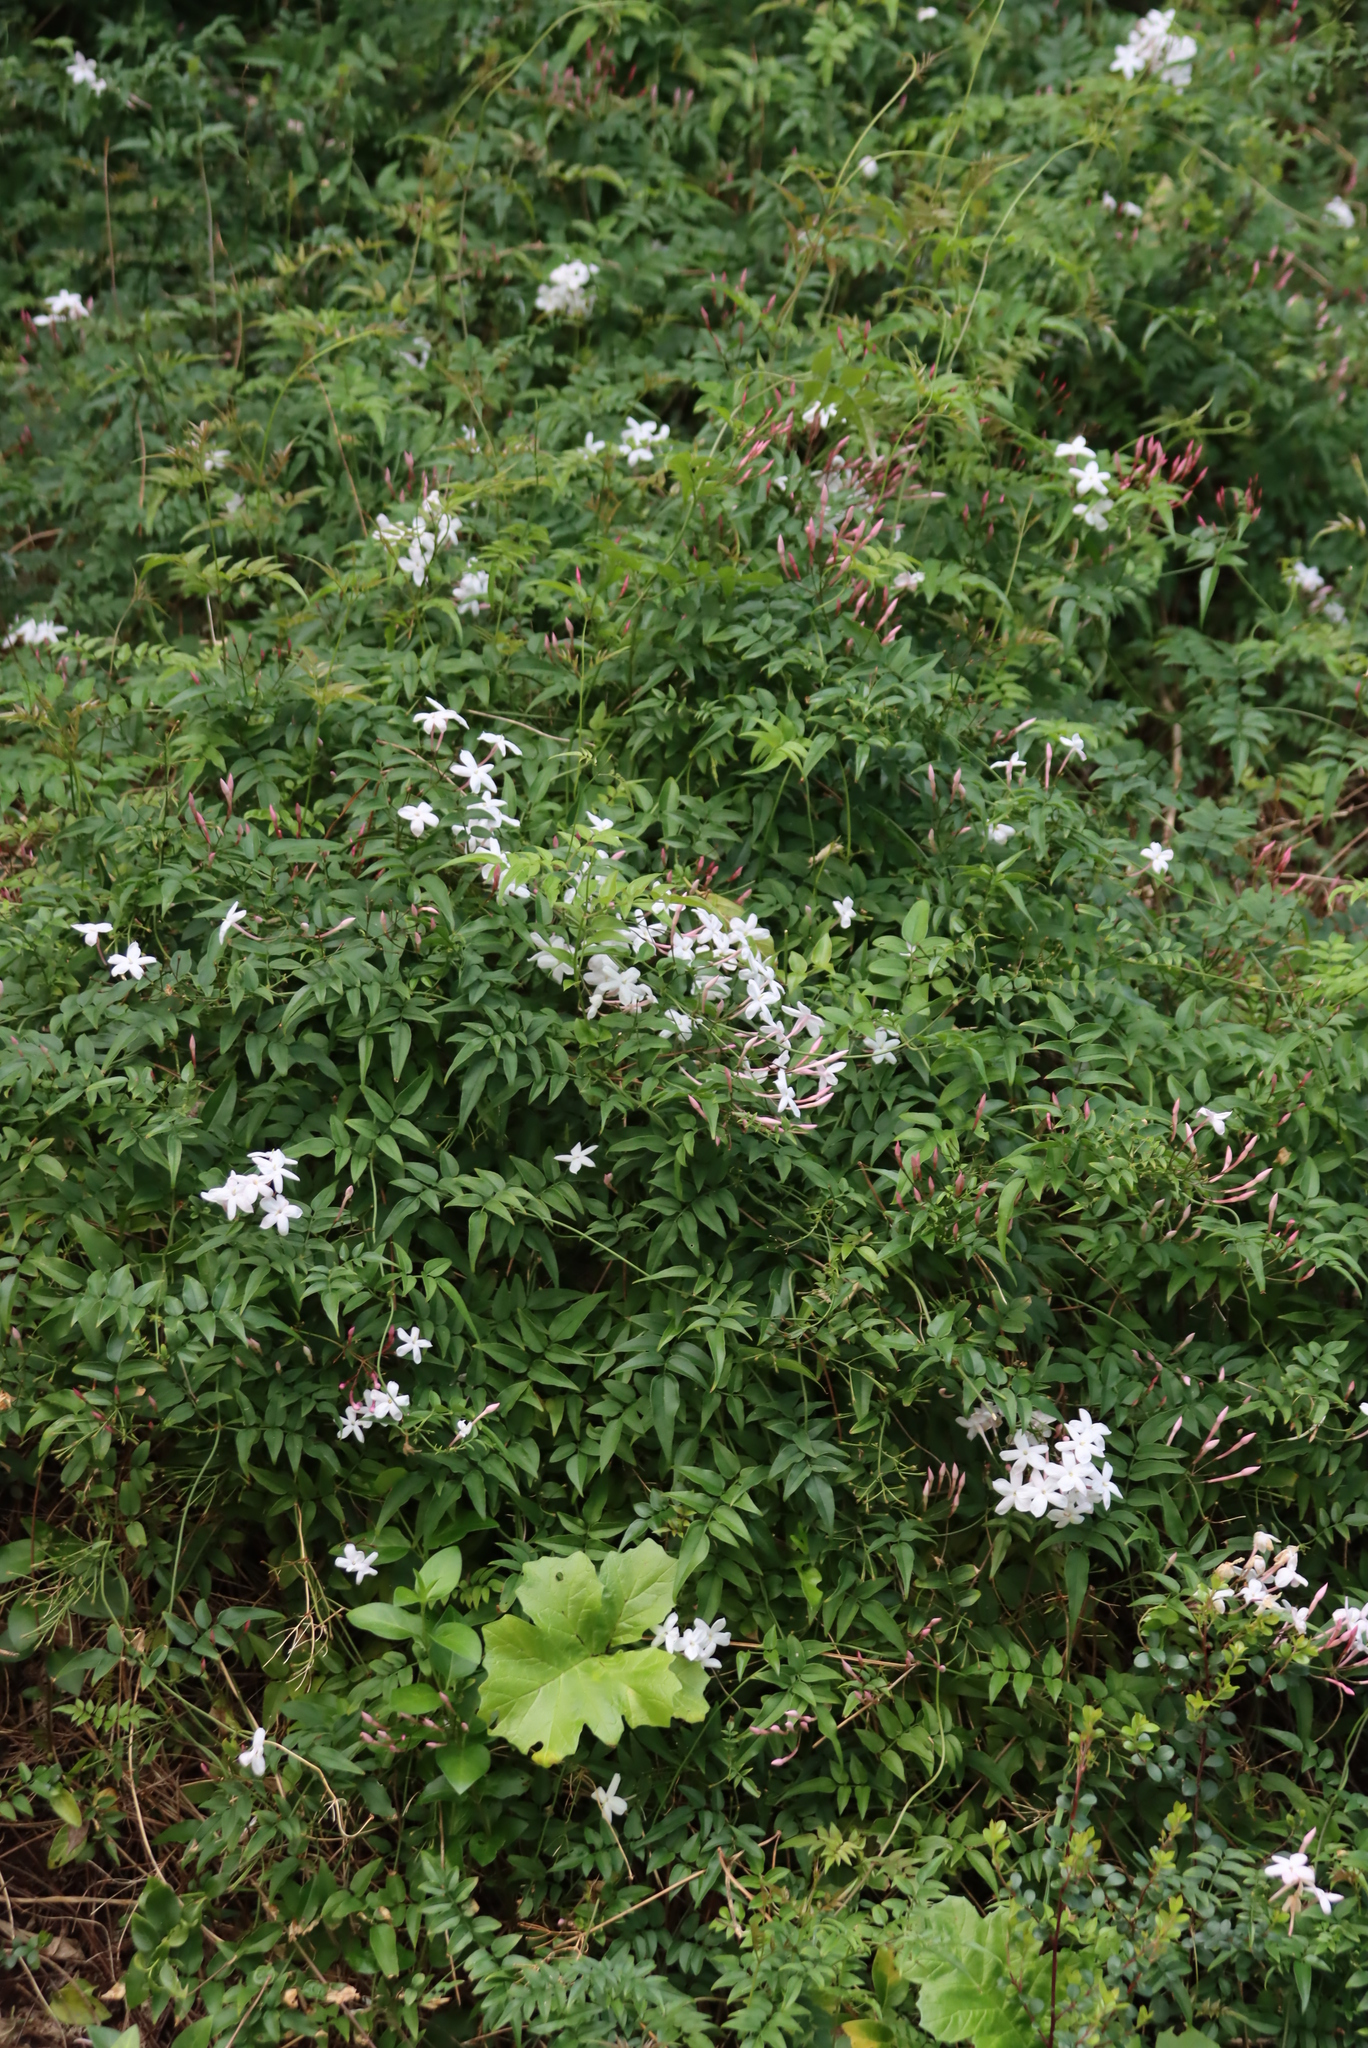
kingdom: Plantae
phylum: Tracheophyta
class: Magnoliopsida
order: Lamiales
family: Oleaceae
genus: Jasminum
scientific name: Jasminum polyanthum
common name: Pink jasmine
